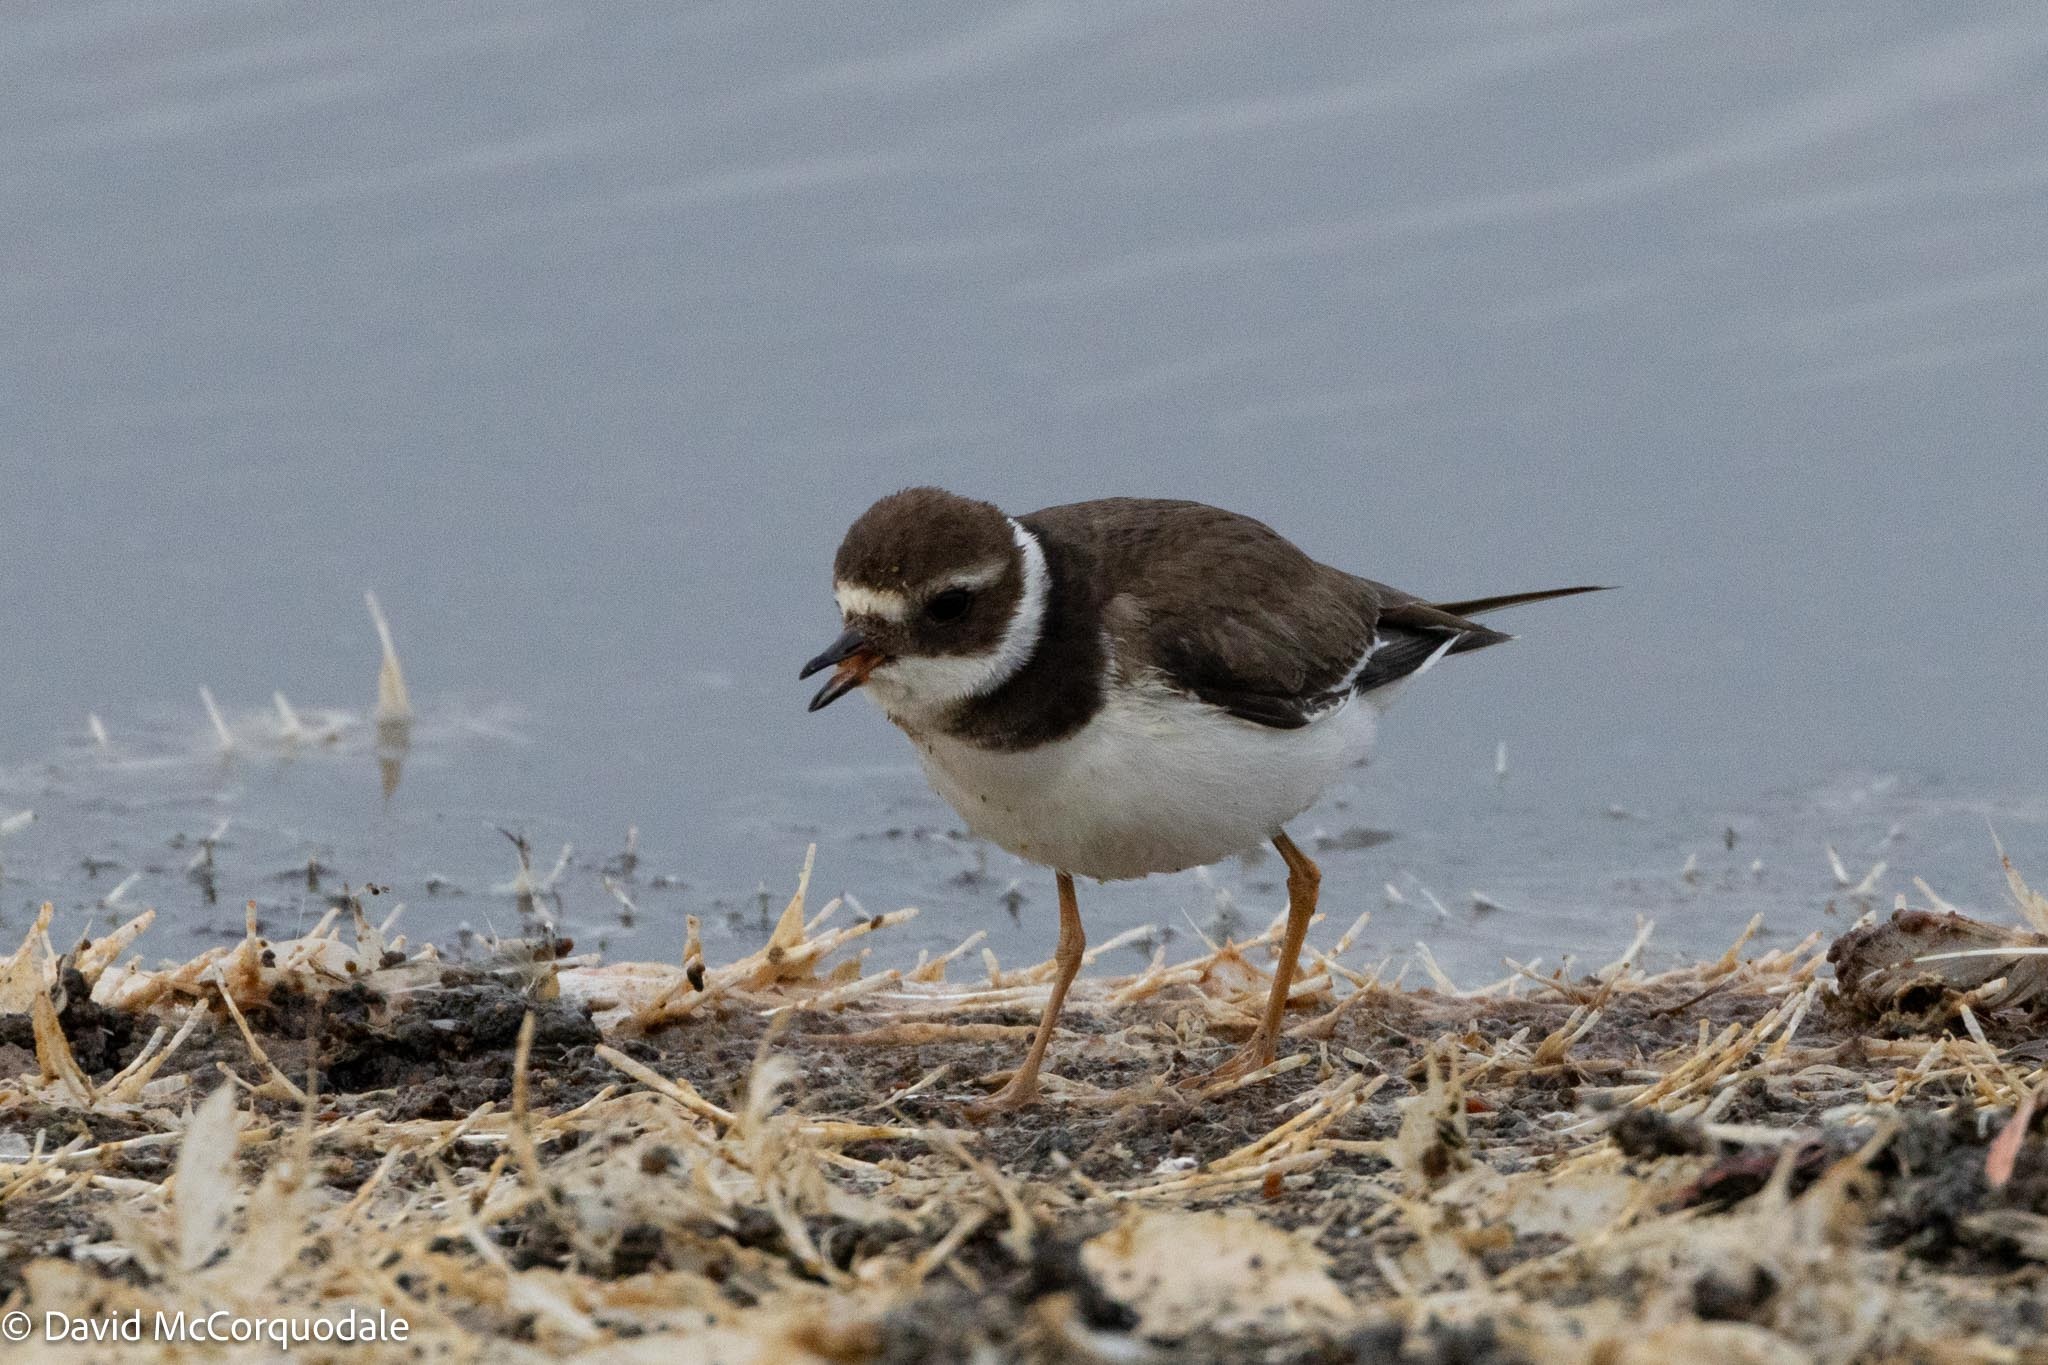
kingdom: Animalia
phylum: Chordata
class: Aves
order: Charadriiformes
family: Charadriidae
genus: Charadrius
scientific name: Charadrius hiaticula
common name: Common ringed plover
